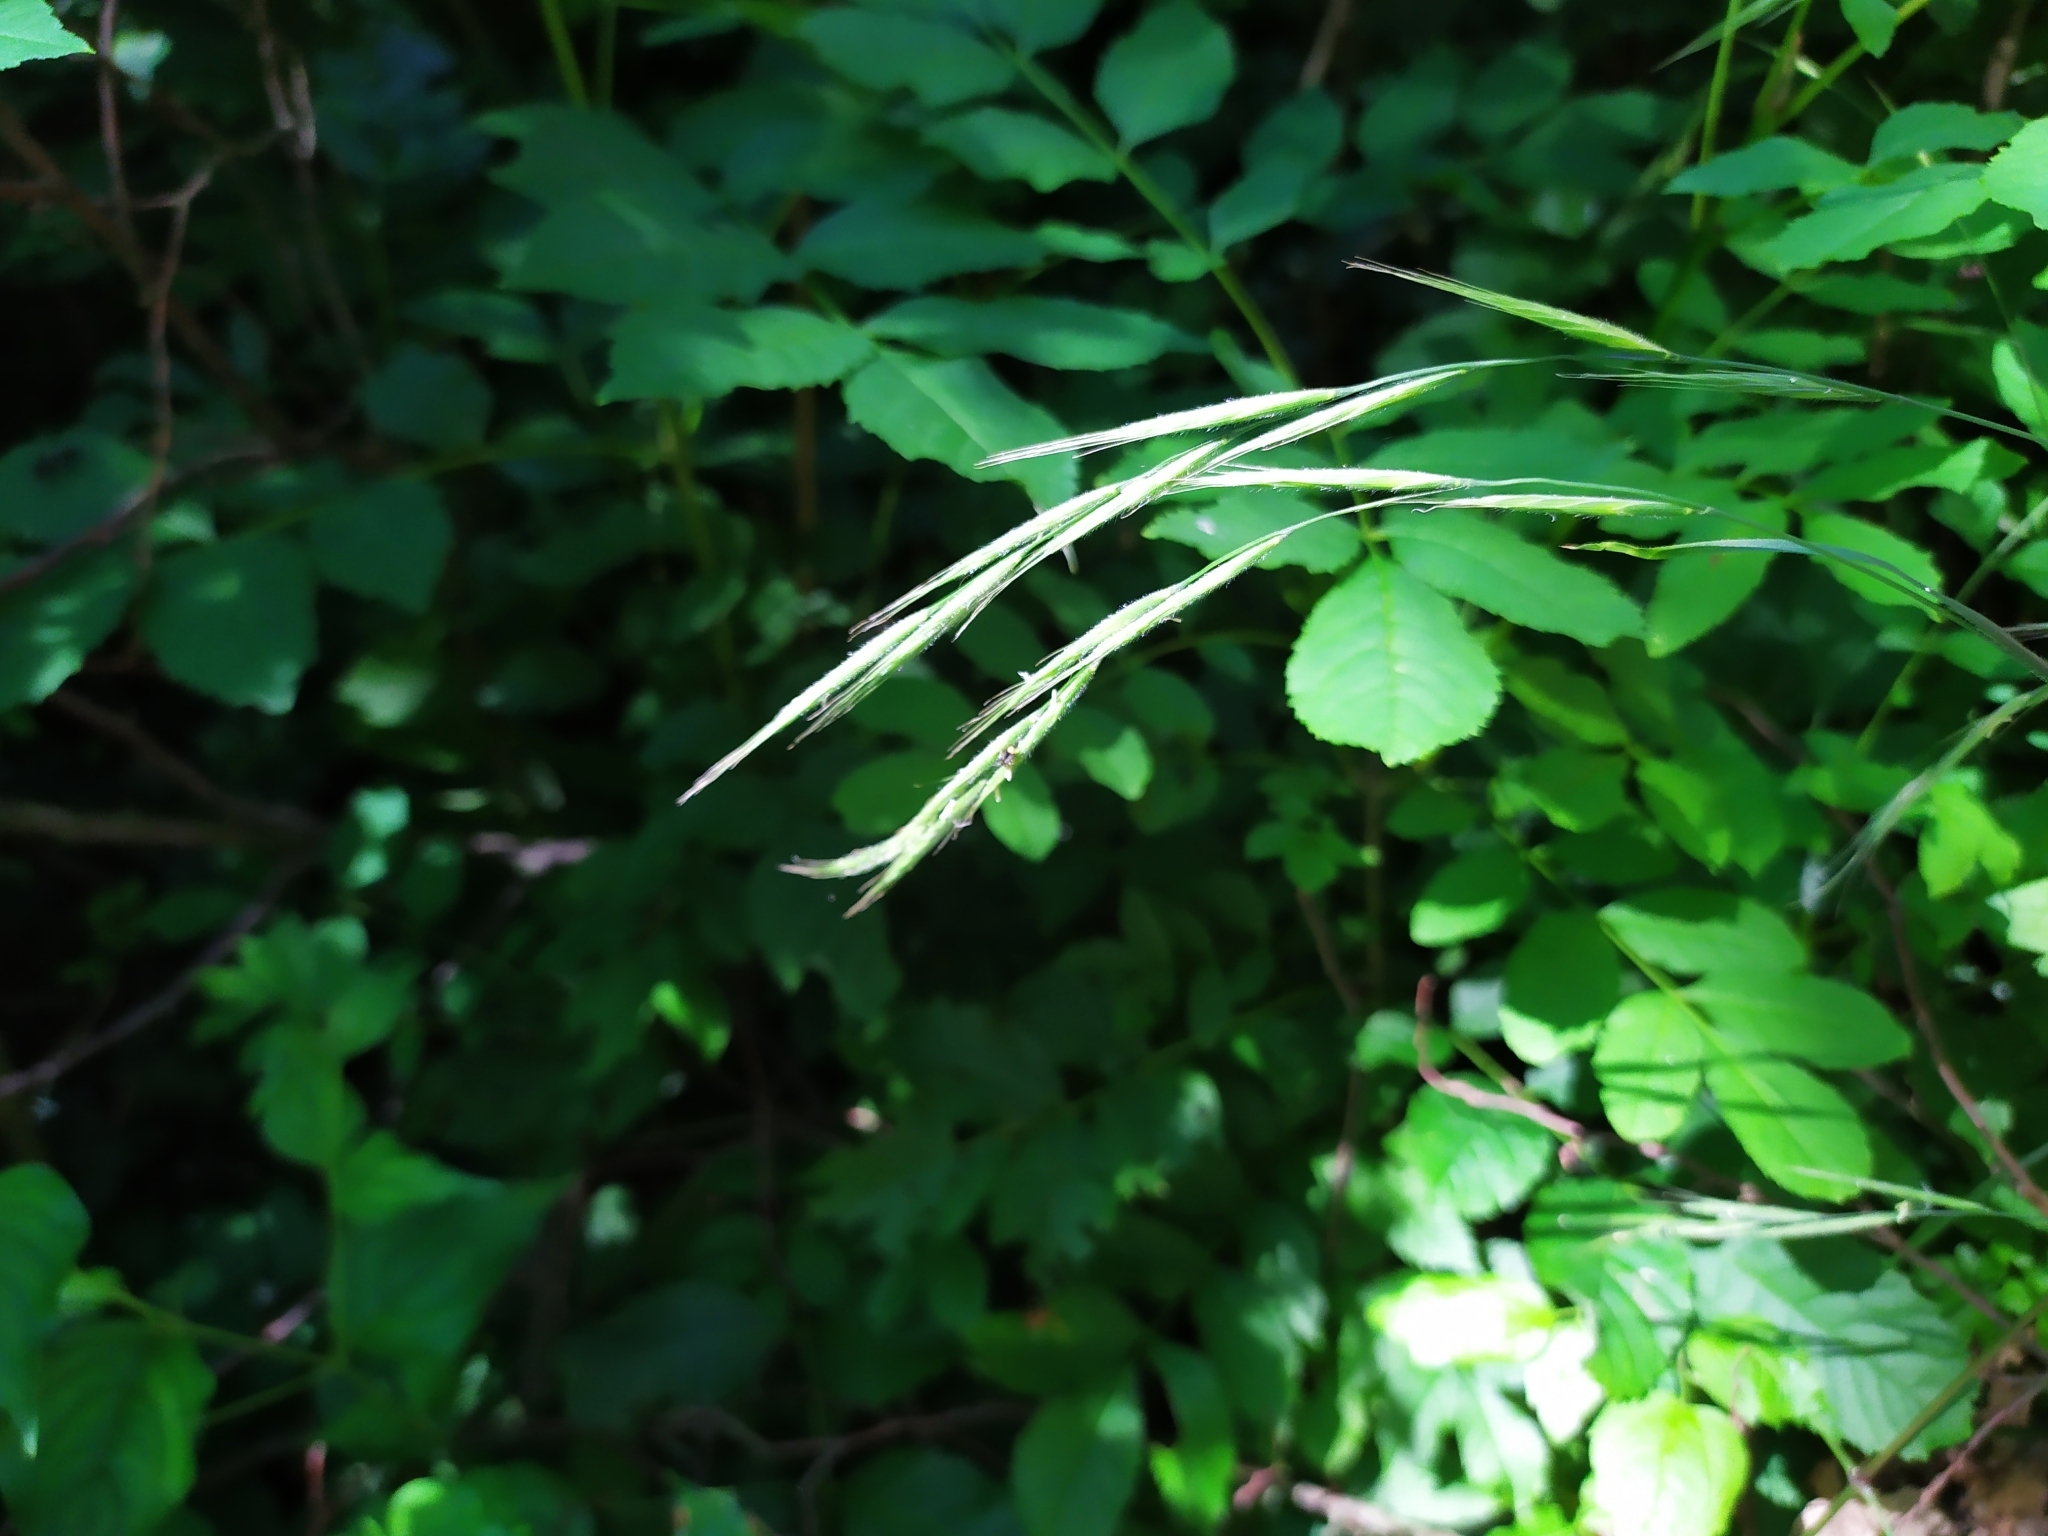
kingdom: Plantae
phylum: Tracheophyta
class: Liliopsida
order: Poales
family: Poaceae
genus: Brachypodium
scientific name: Brachypodium sylvaticum
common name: False-brome
